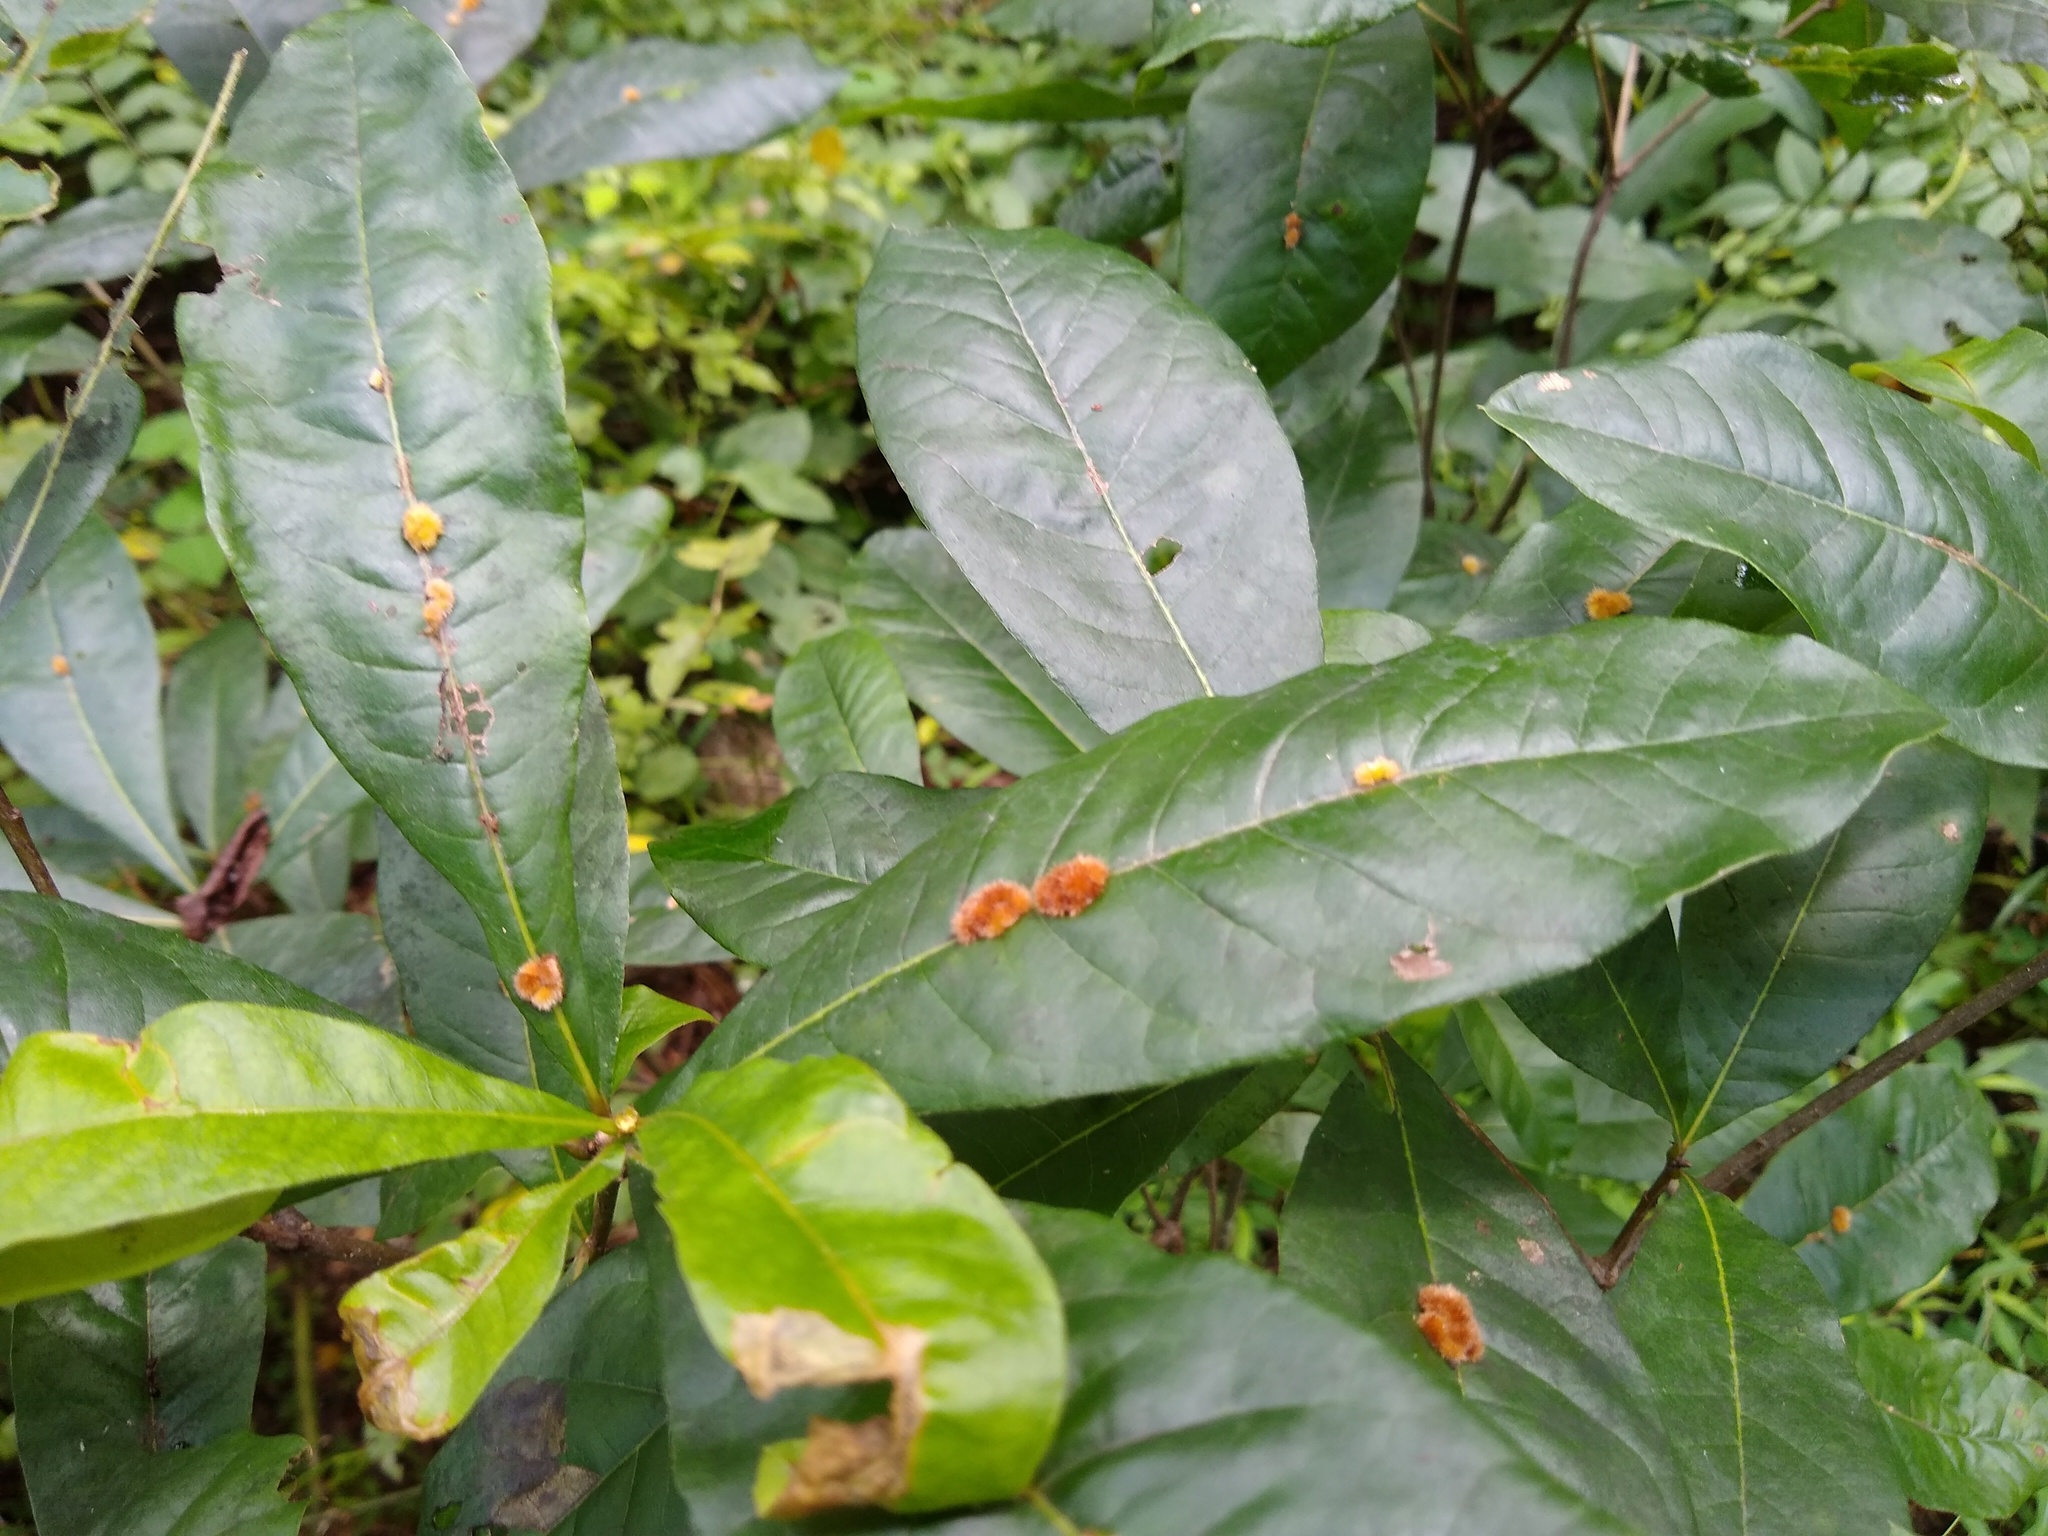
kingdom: Animalia
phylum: Arthropoda
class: Insecta
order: Hymenoptera
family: Cynipidae
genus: Callirhytis
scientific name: Callirhytis
